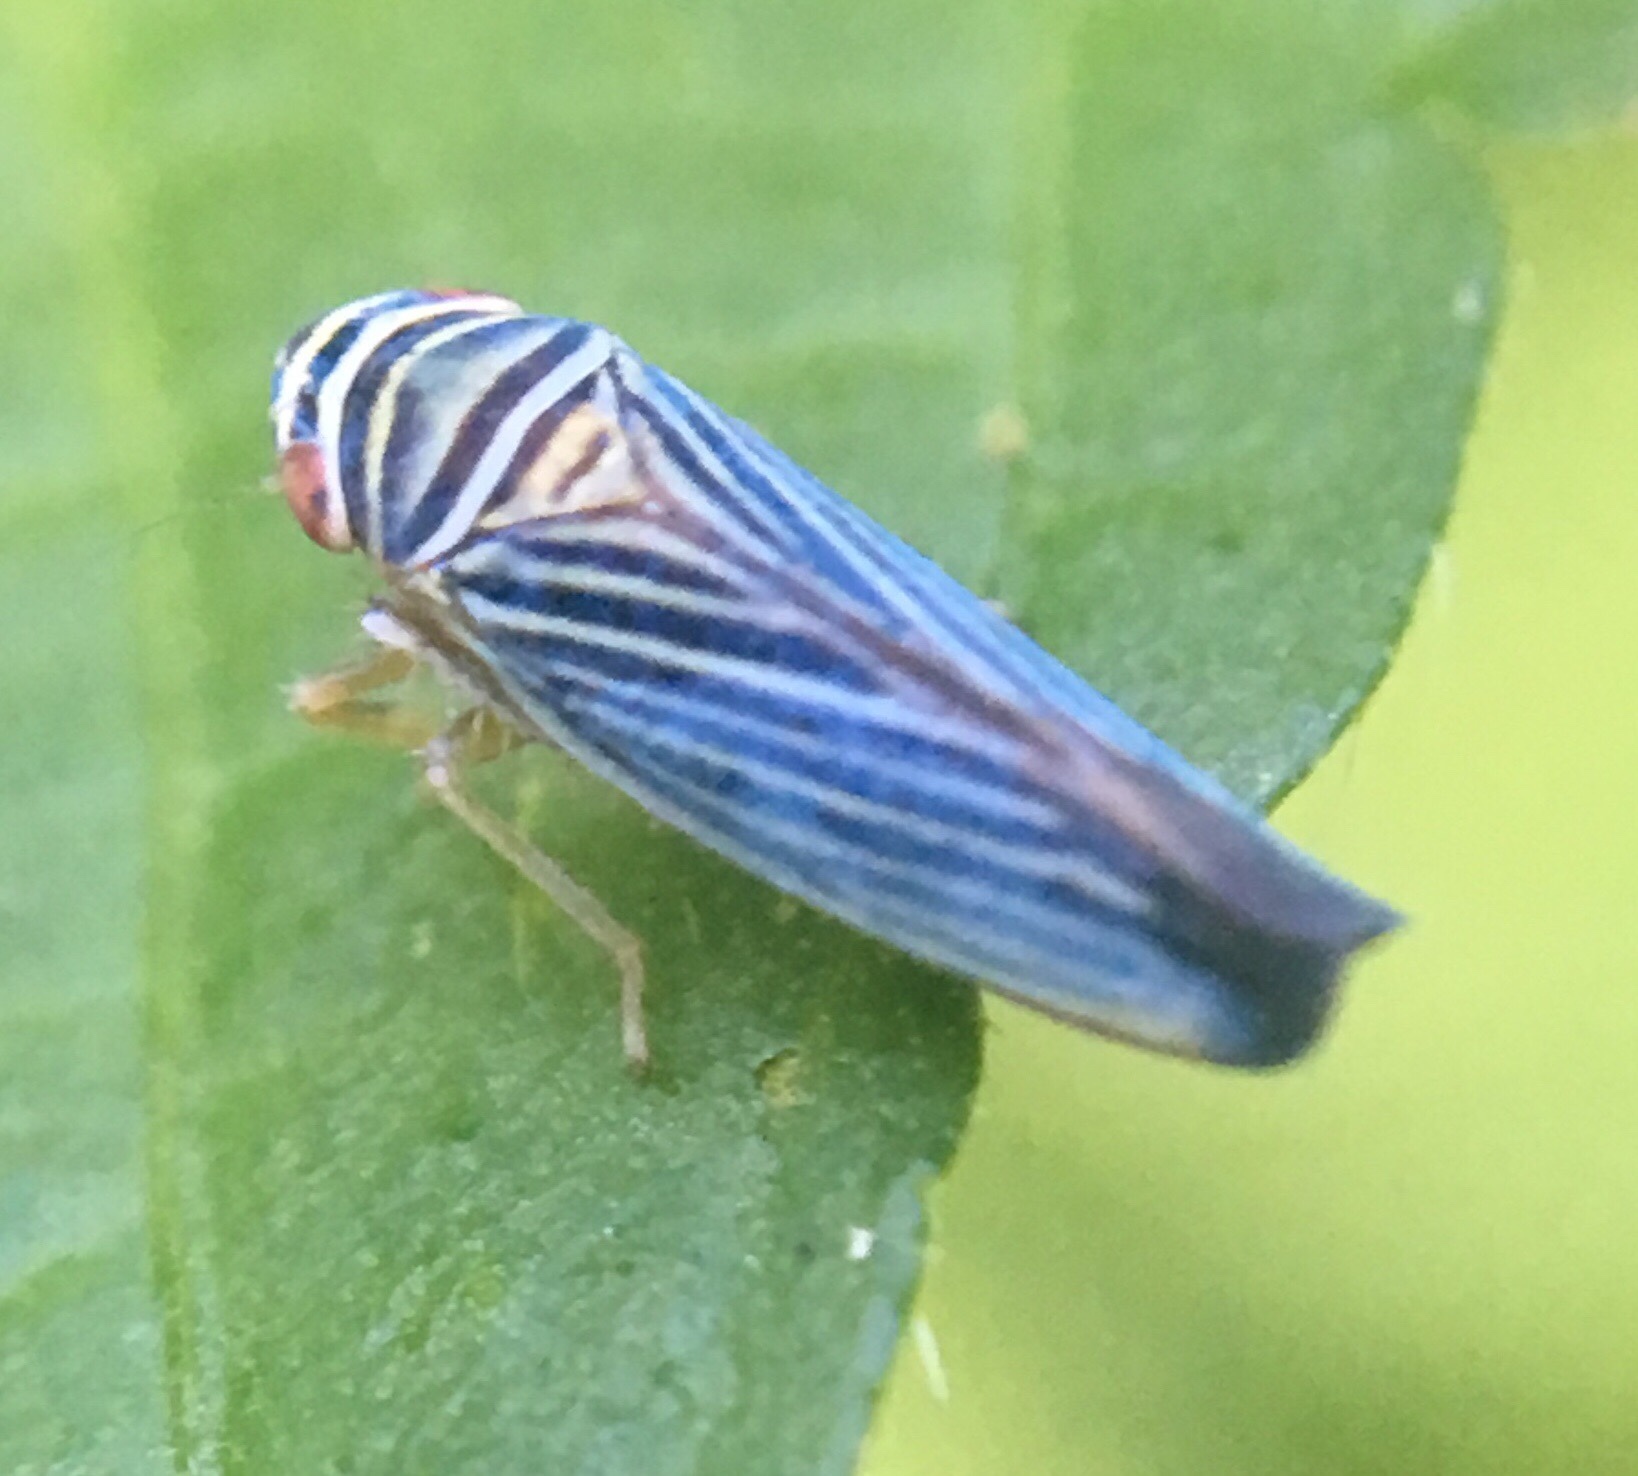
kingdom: Animalia
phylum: Arthropoda
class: Insecta
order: Hemiptera
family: Cicadellidae
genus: Tylozygus
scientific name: Tylozygus bifidus
